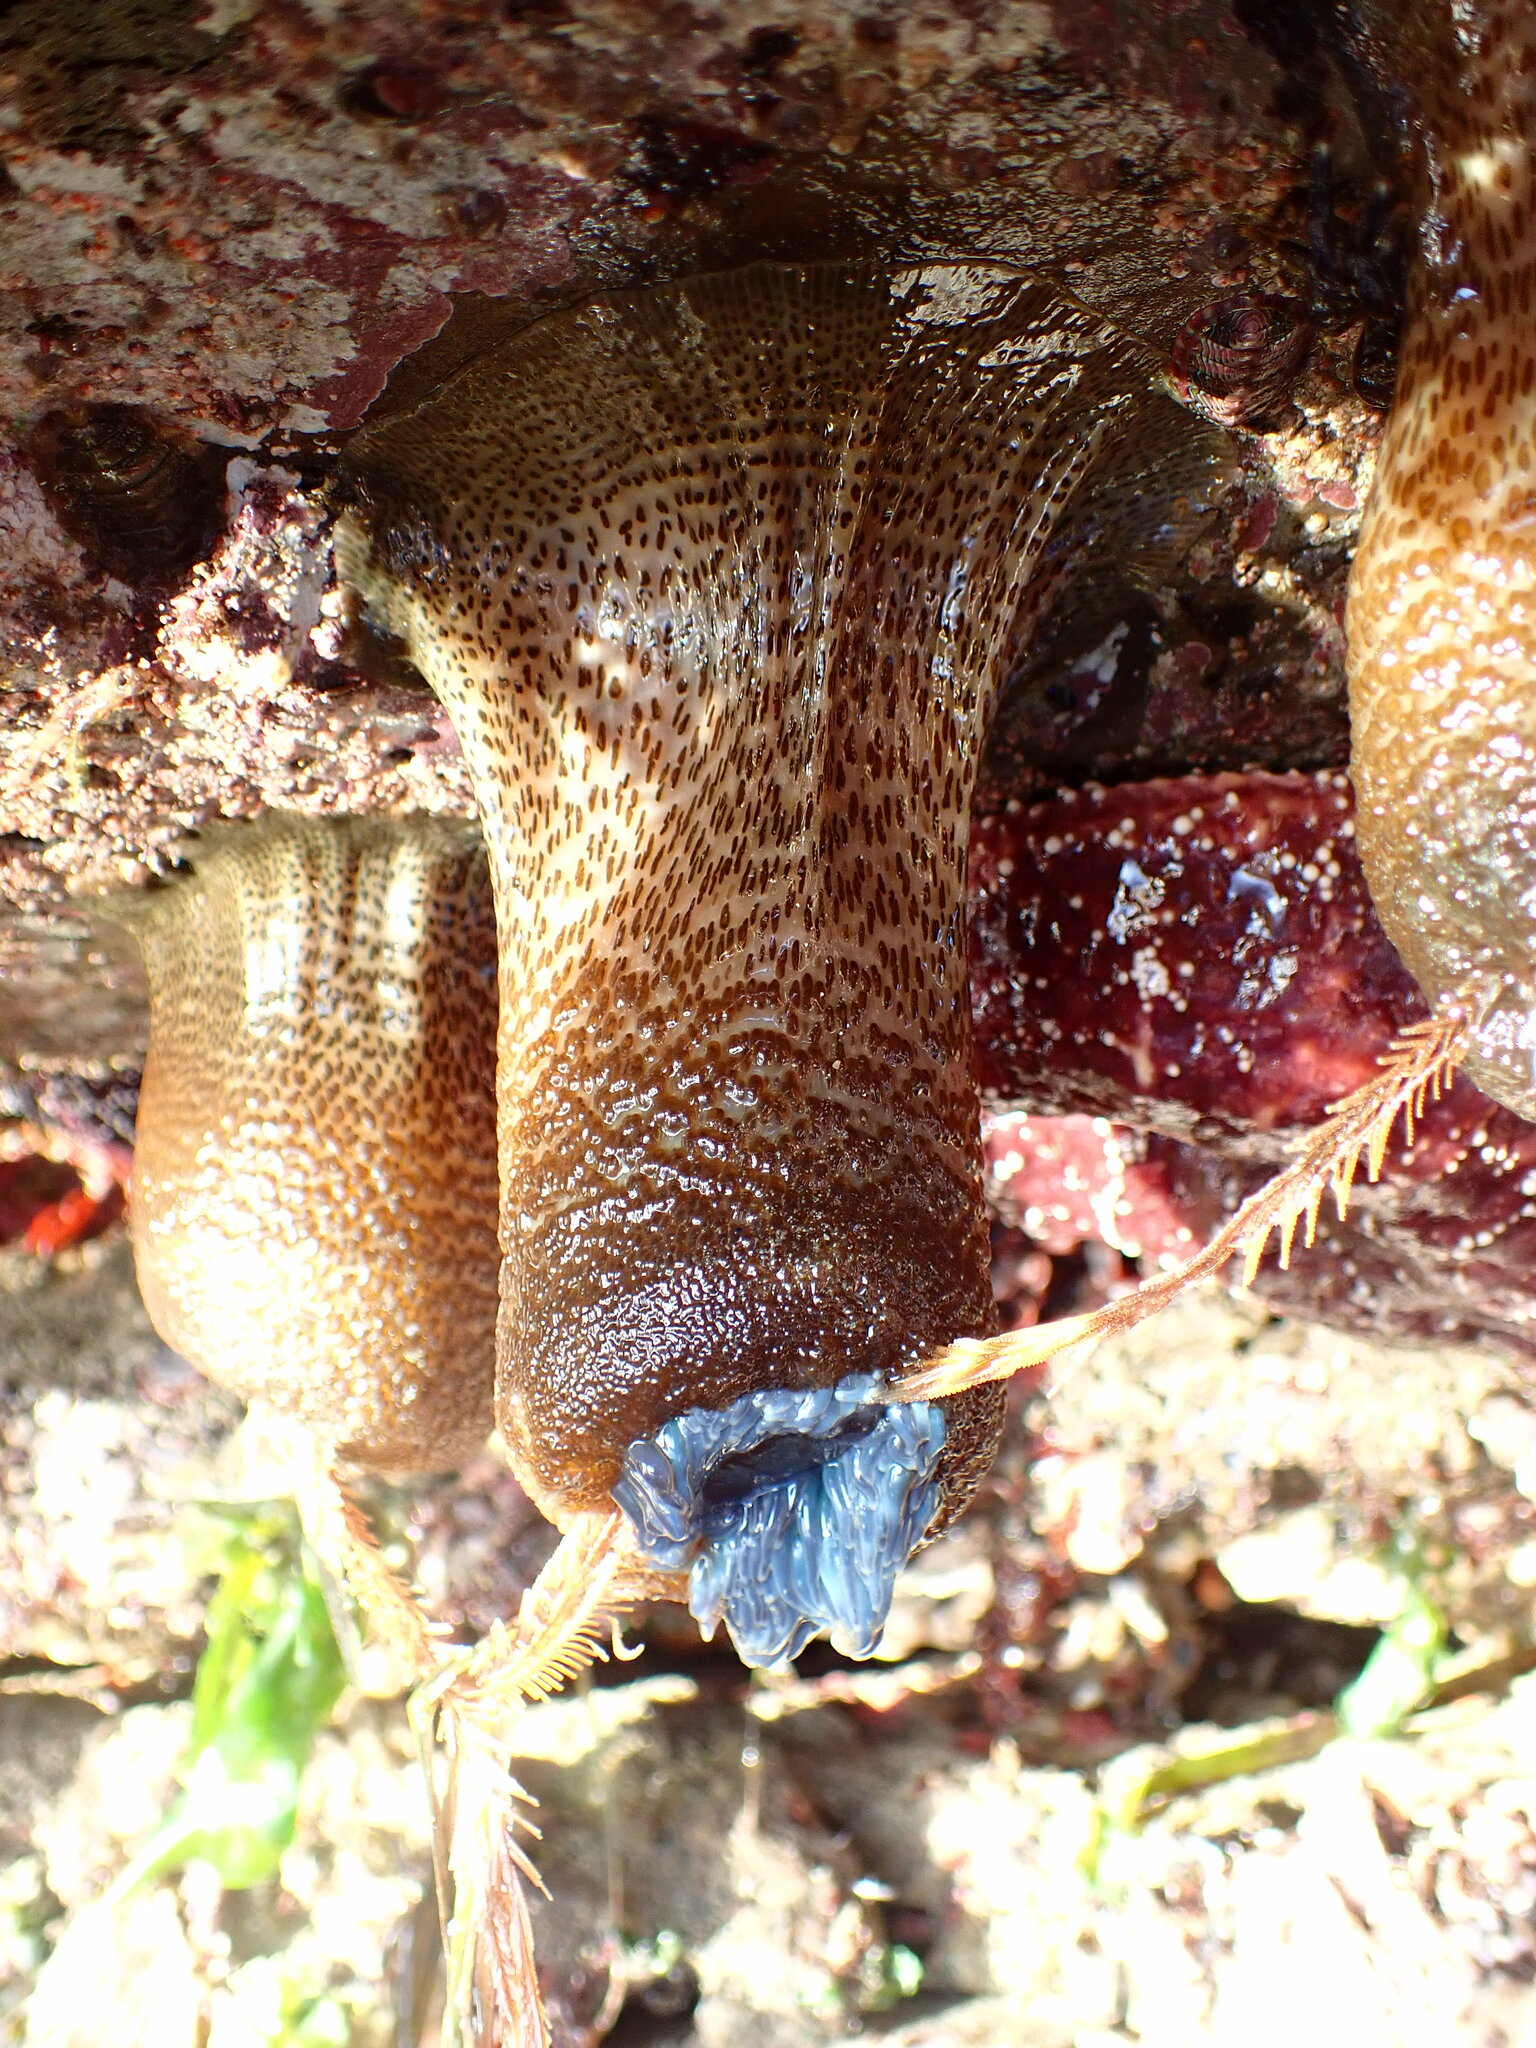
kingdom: Animalia
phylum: Cnidaria
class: Anthozoa
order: Actiniaria
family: Actiniidae
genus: Anthopleura
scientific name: Anthopleura sola
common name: Sun anemone
